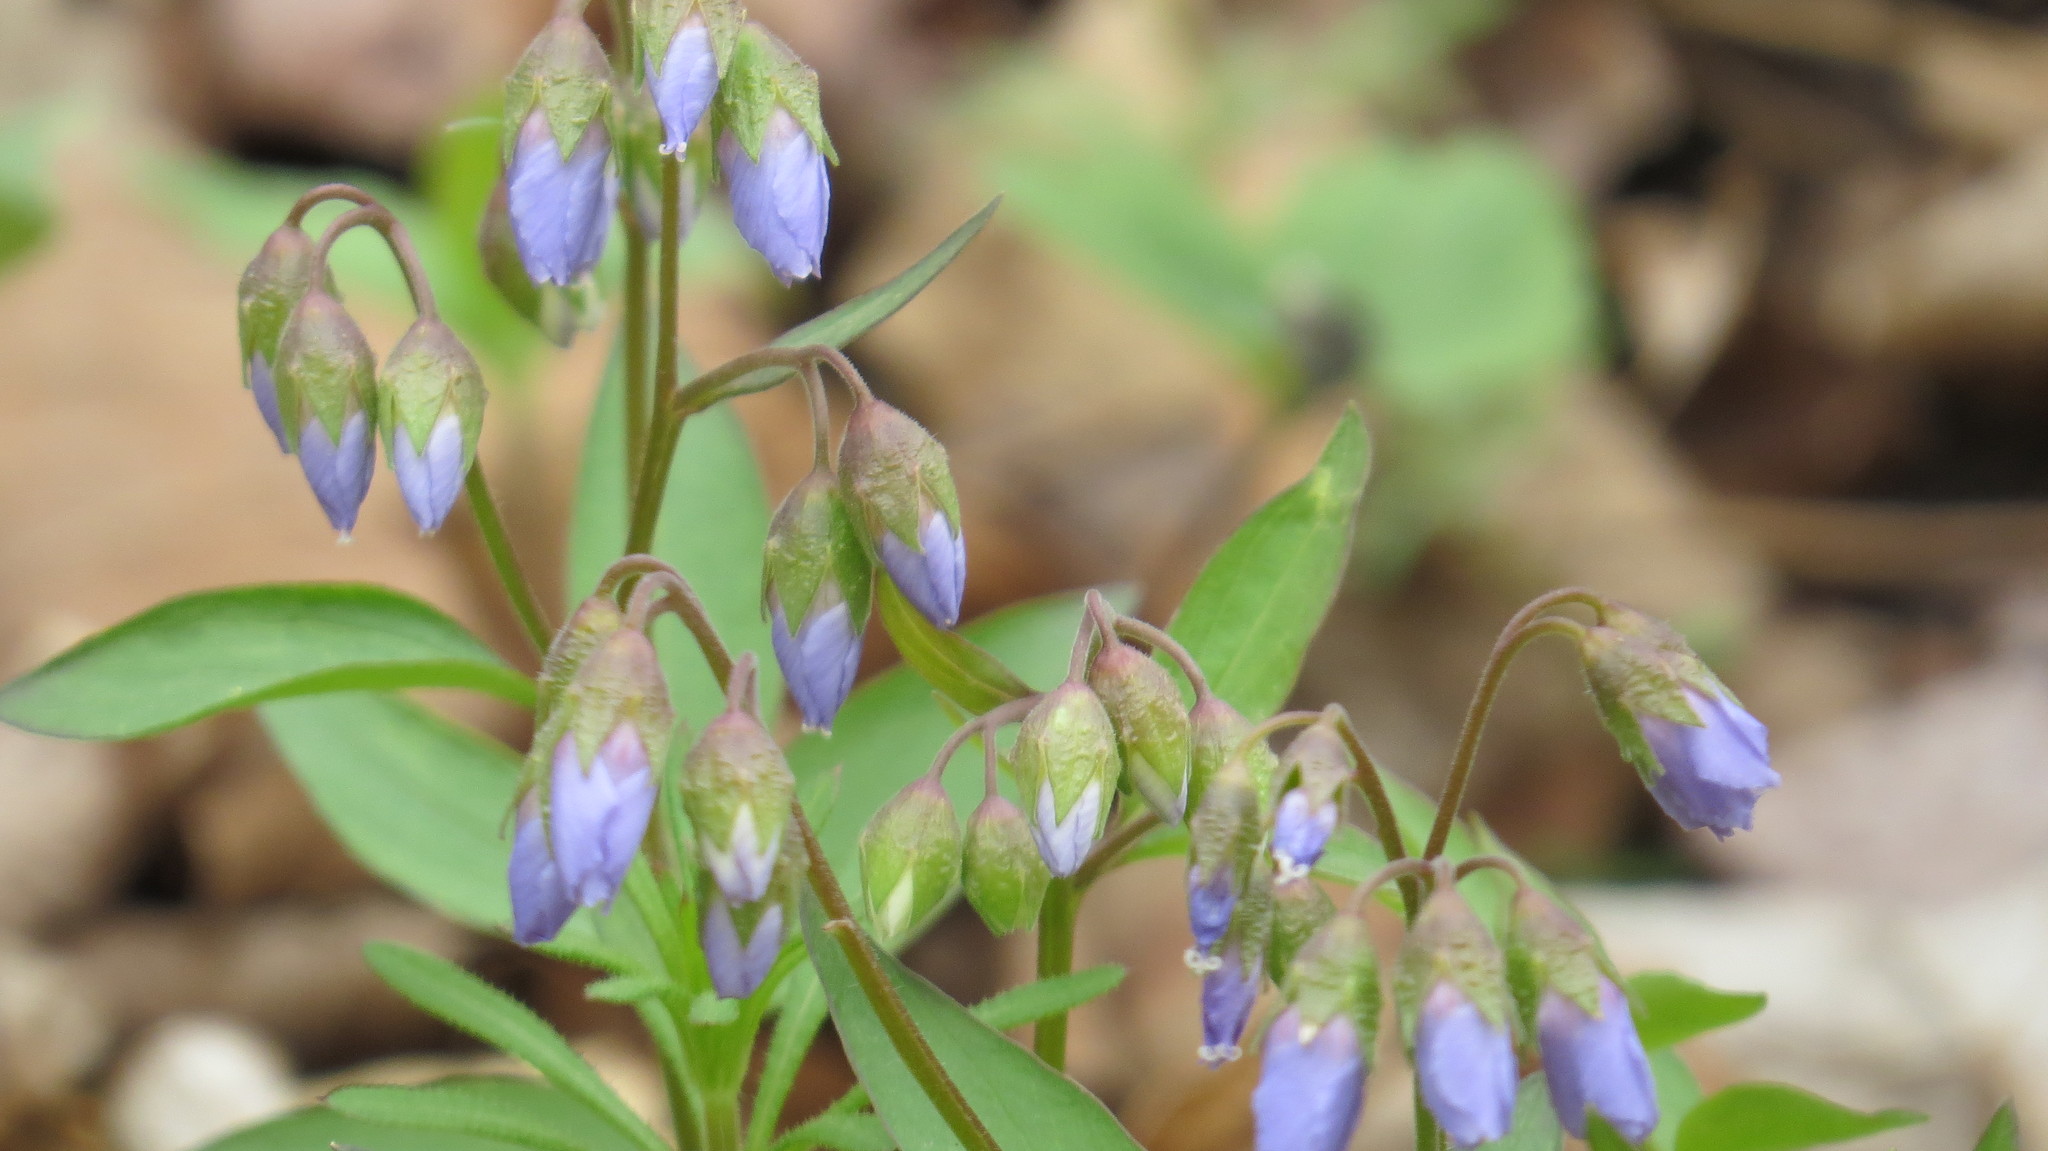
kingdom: Plantae
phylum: Tracheophyta
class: Magnoliopsida
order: Ericales
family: Polemoniaceae
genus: Polemonium
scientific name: Polemonium reptans
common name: Creeping jacob's-ladder
